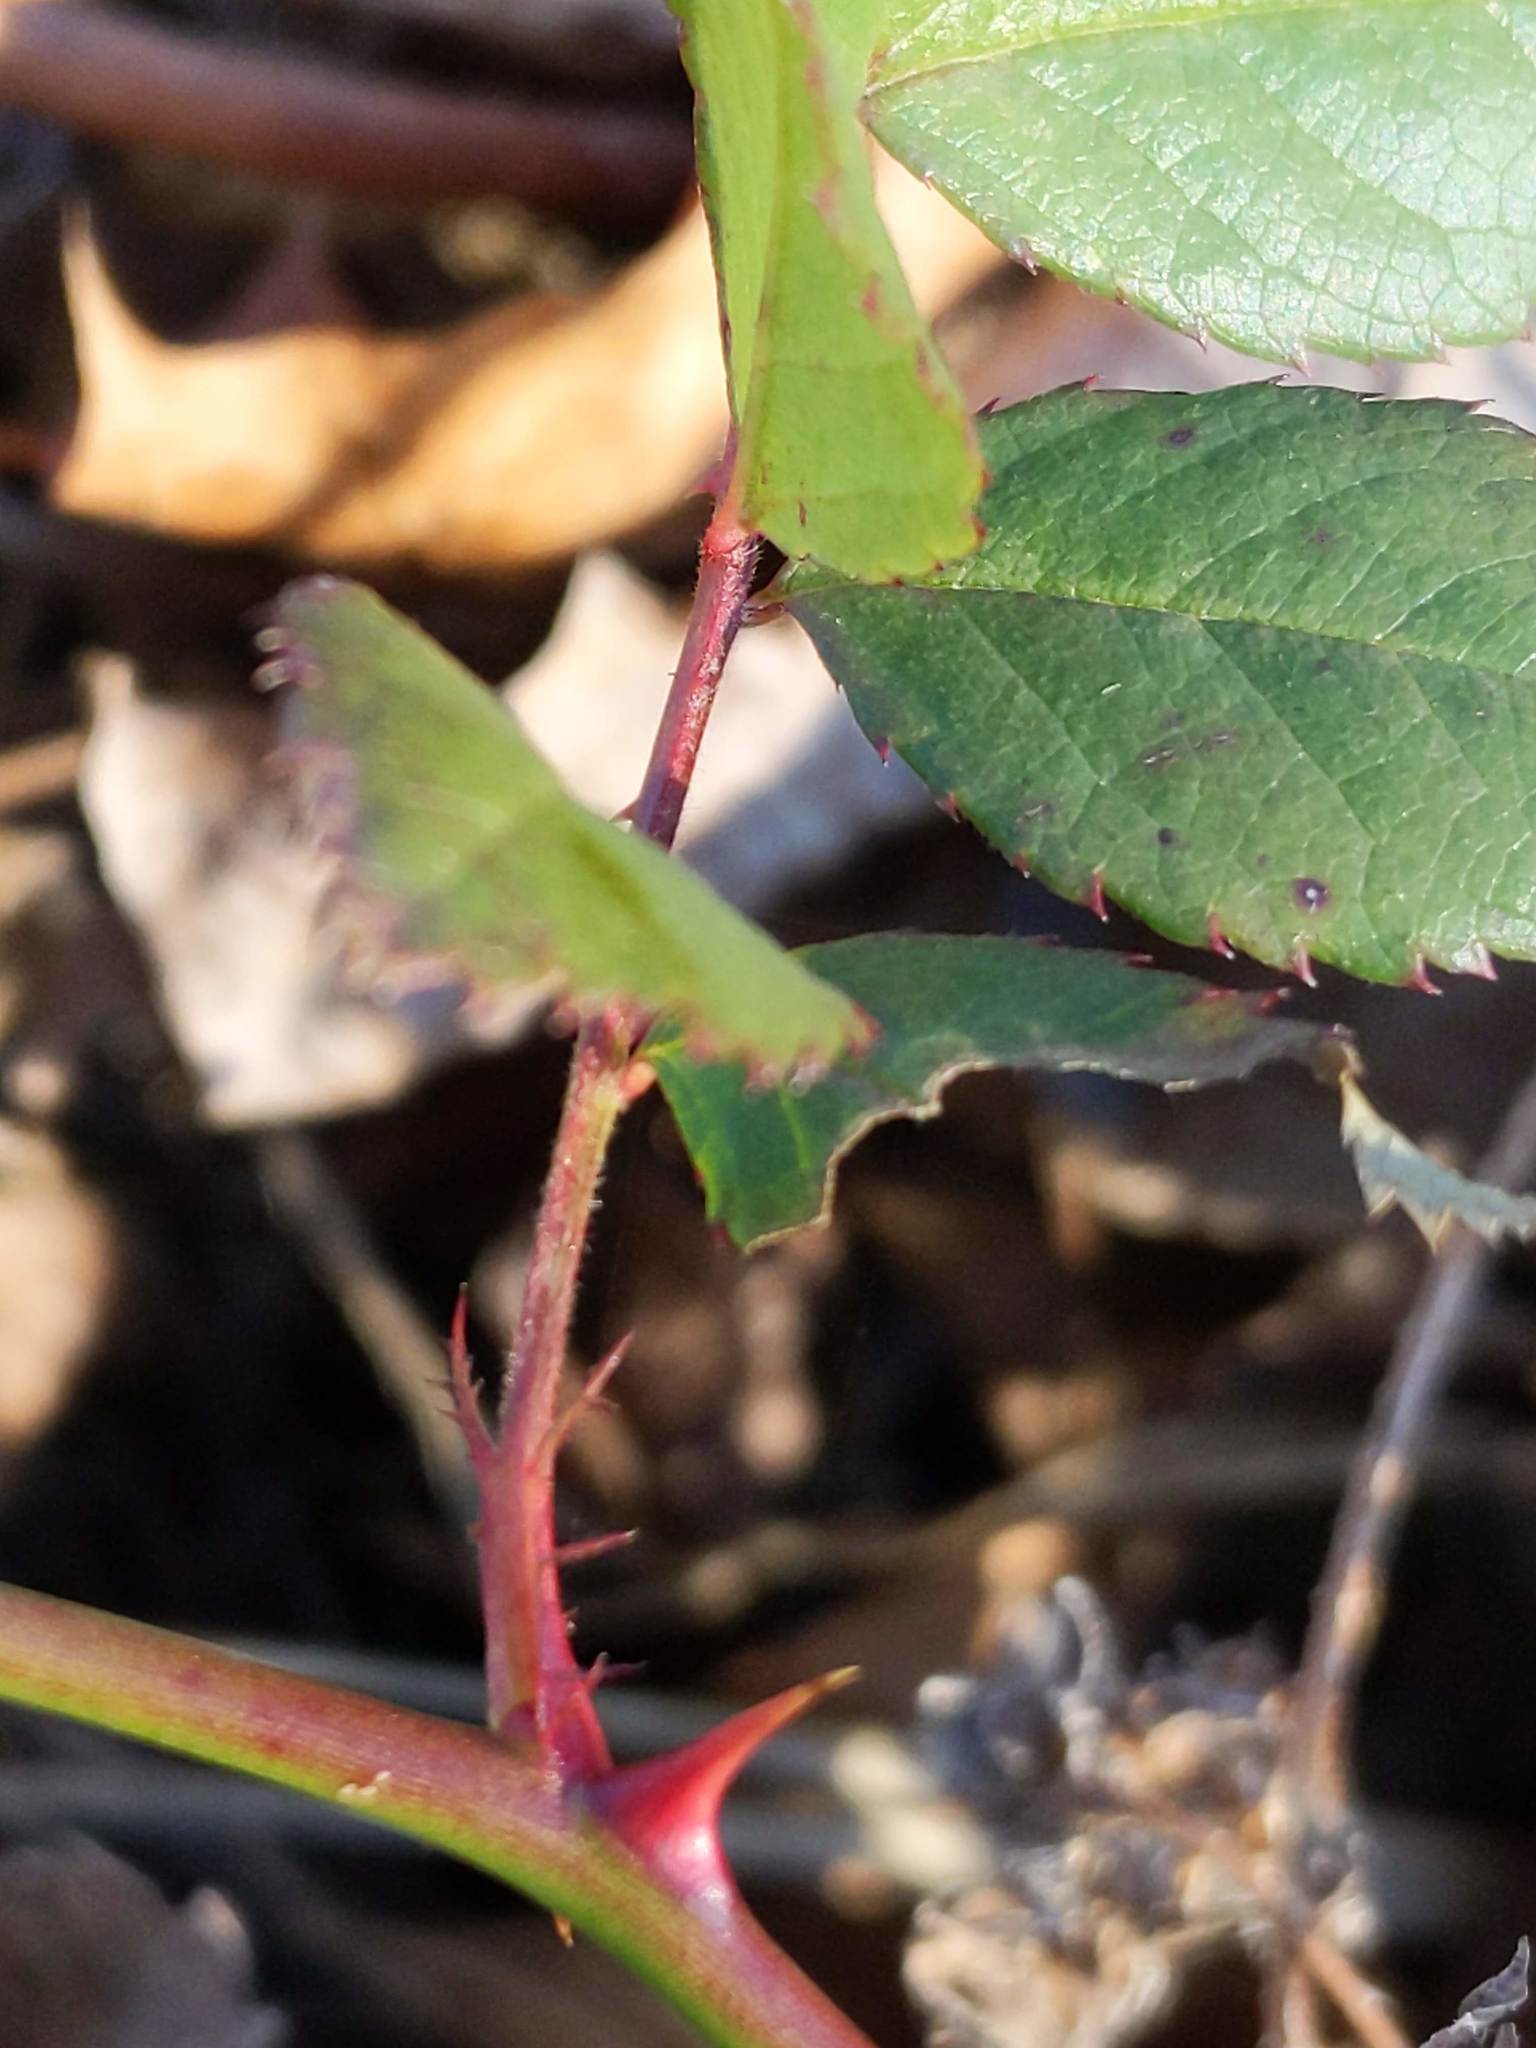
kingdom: Plantae
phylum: Tracheophyta
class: Magnoliopsida
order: Rosales
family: Rosaceae
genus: Rosa
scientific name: Rosa multiflora
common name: Multiflora rose
